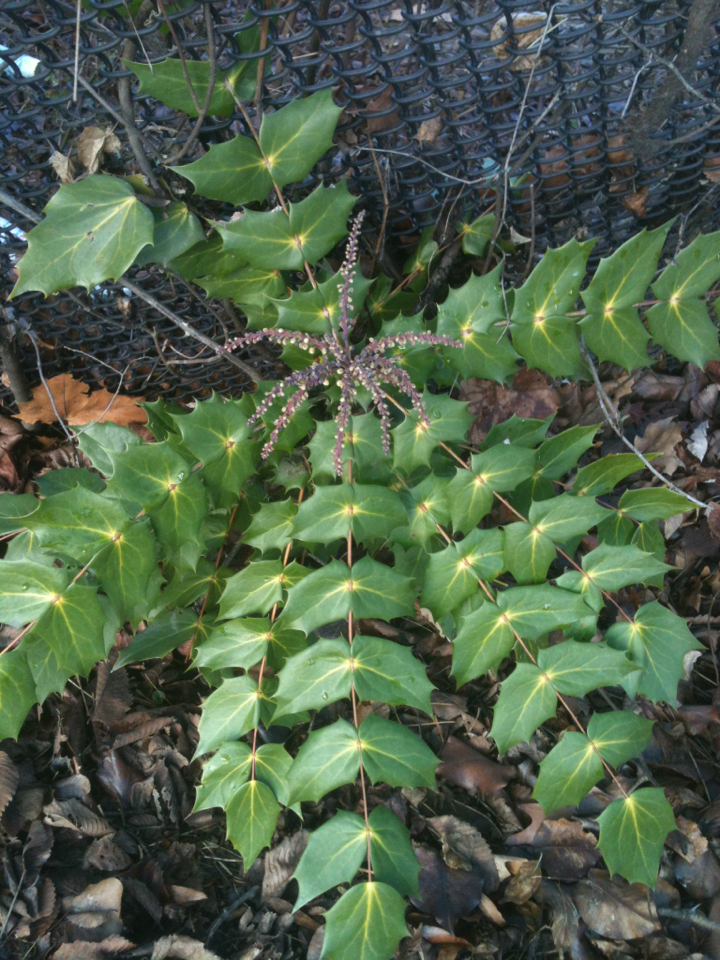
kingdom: Plantae
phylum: Tracheophyta
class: Magnoliopsida
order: Ranunculales
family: Berberidaceae
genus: Mahonia
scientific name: Mahonia bealei
